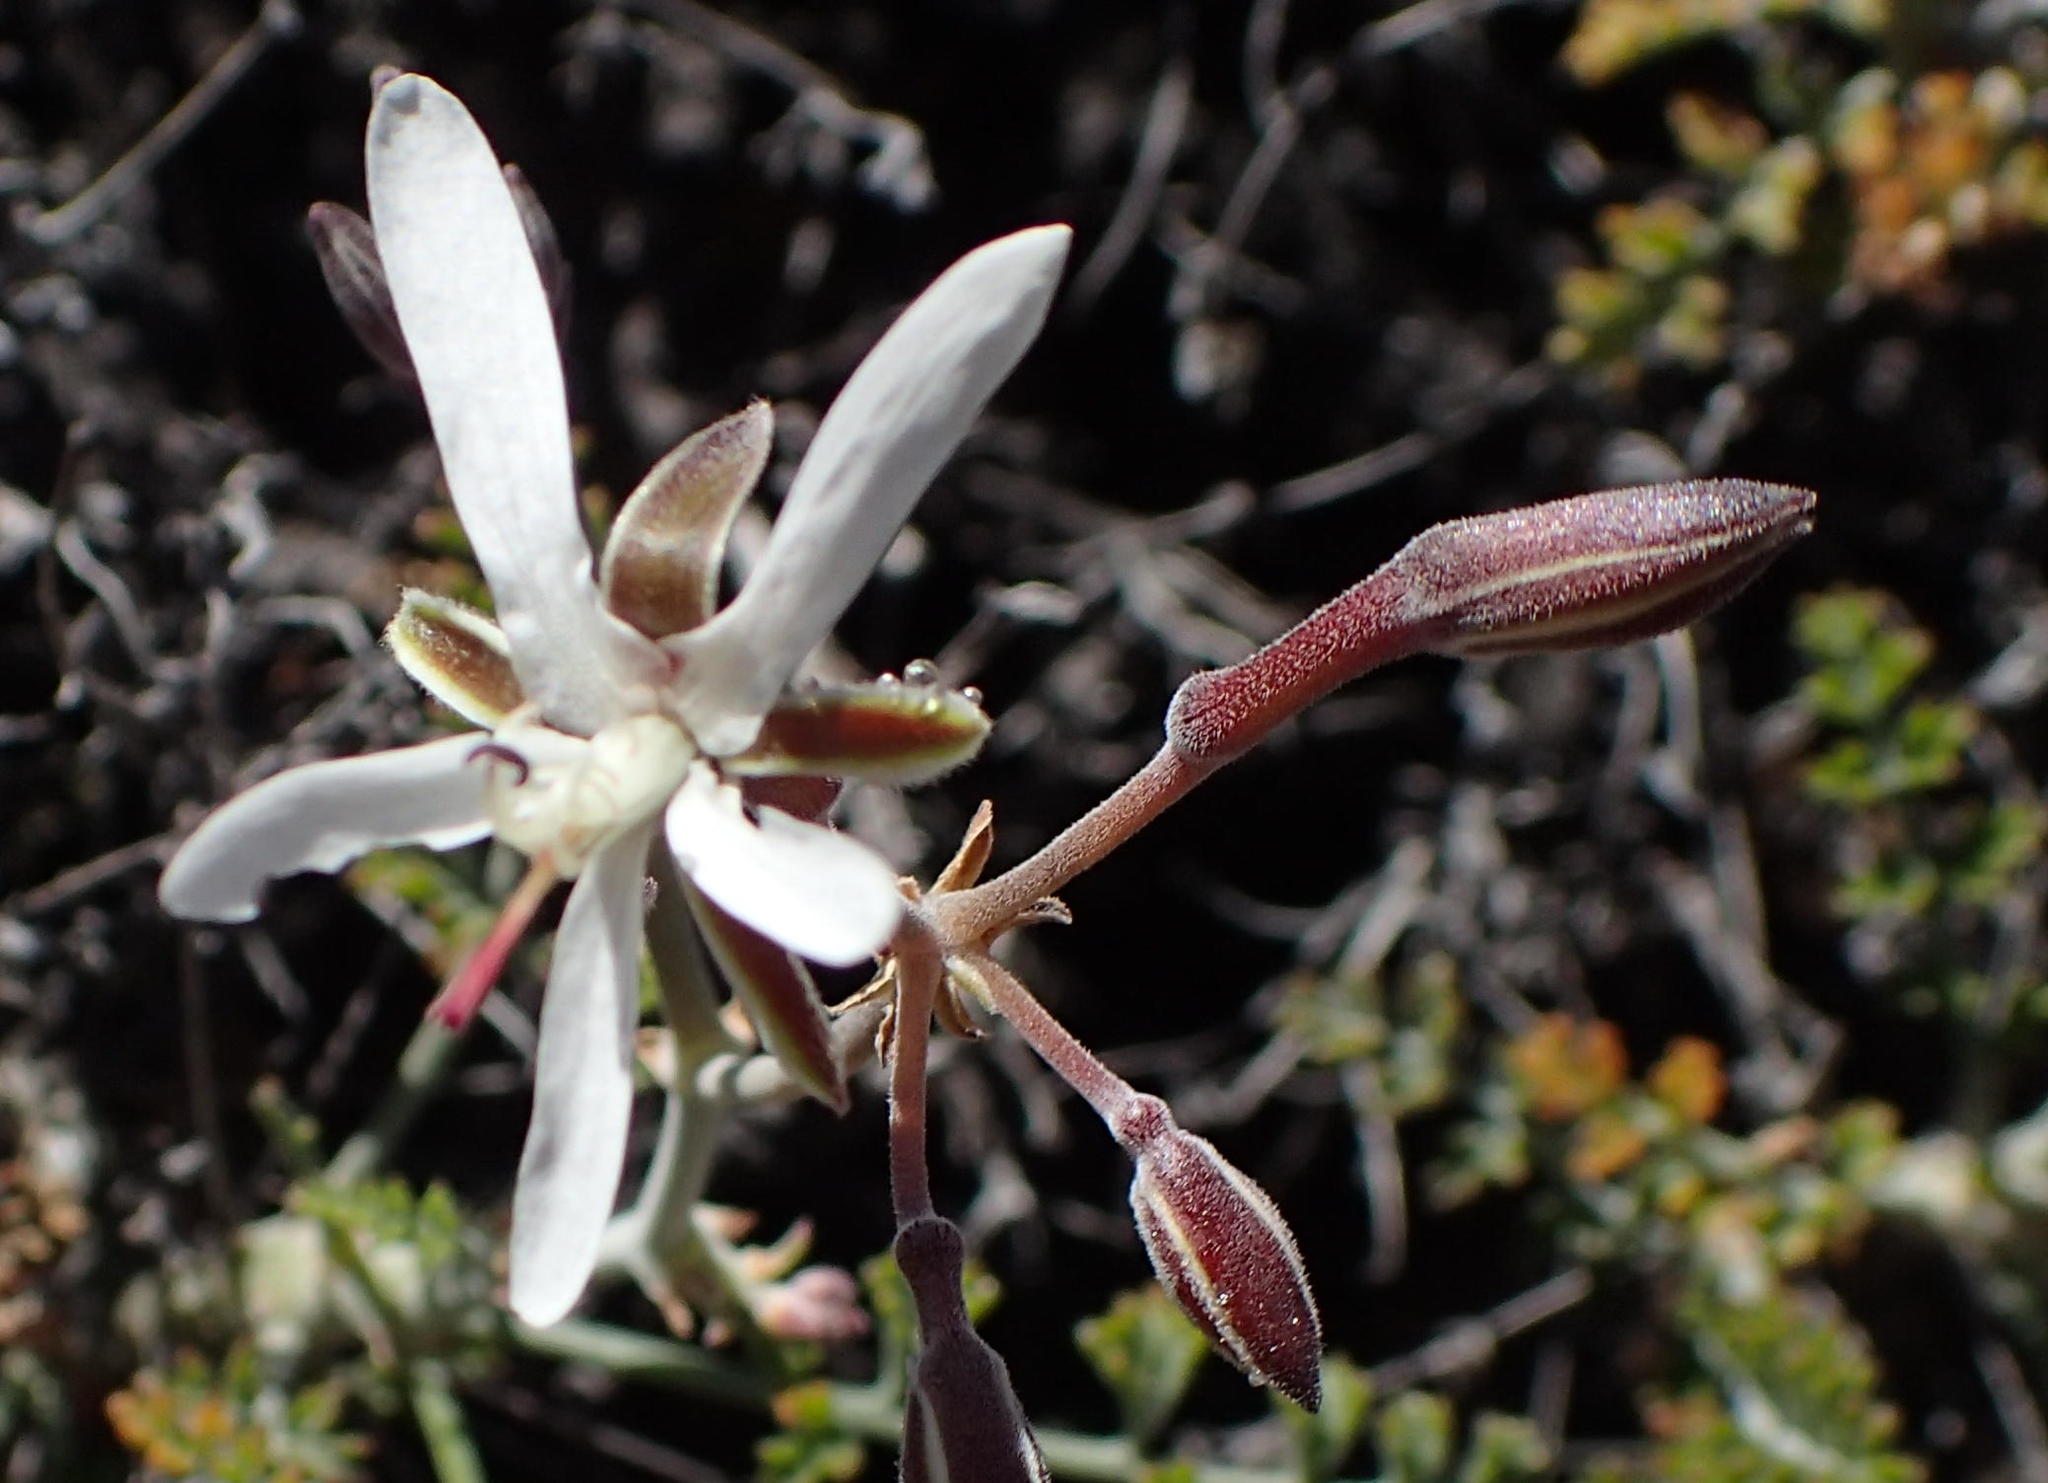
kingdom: Plantae
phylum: Tracheophyta
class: Magnoliopsida
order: Geraniales
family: Geraniaceae
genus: Pelargonium
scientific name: Pelargonium dasyphyllum
